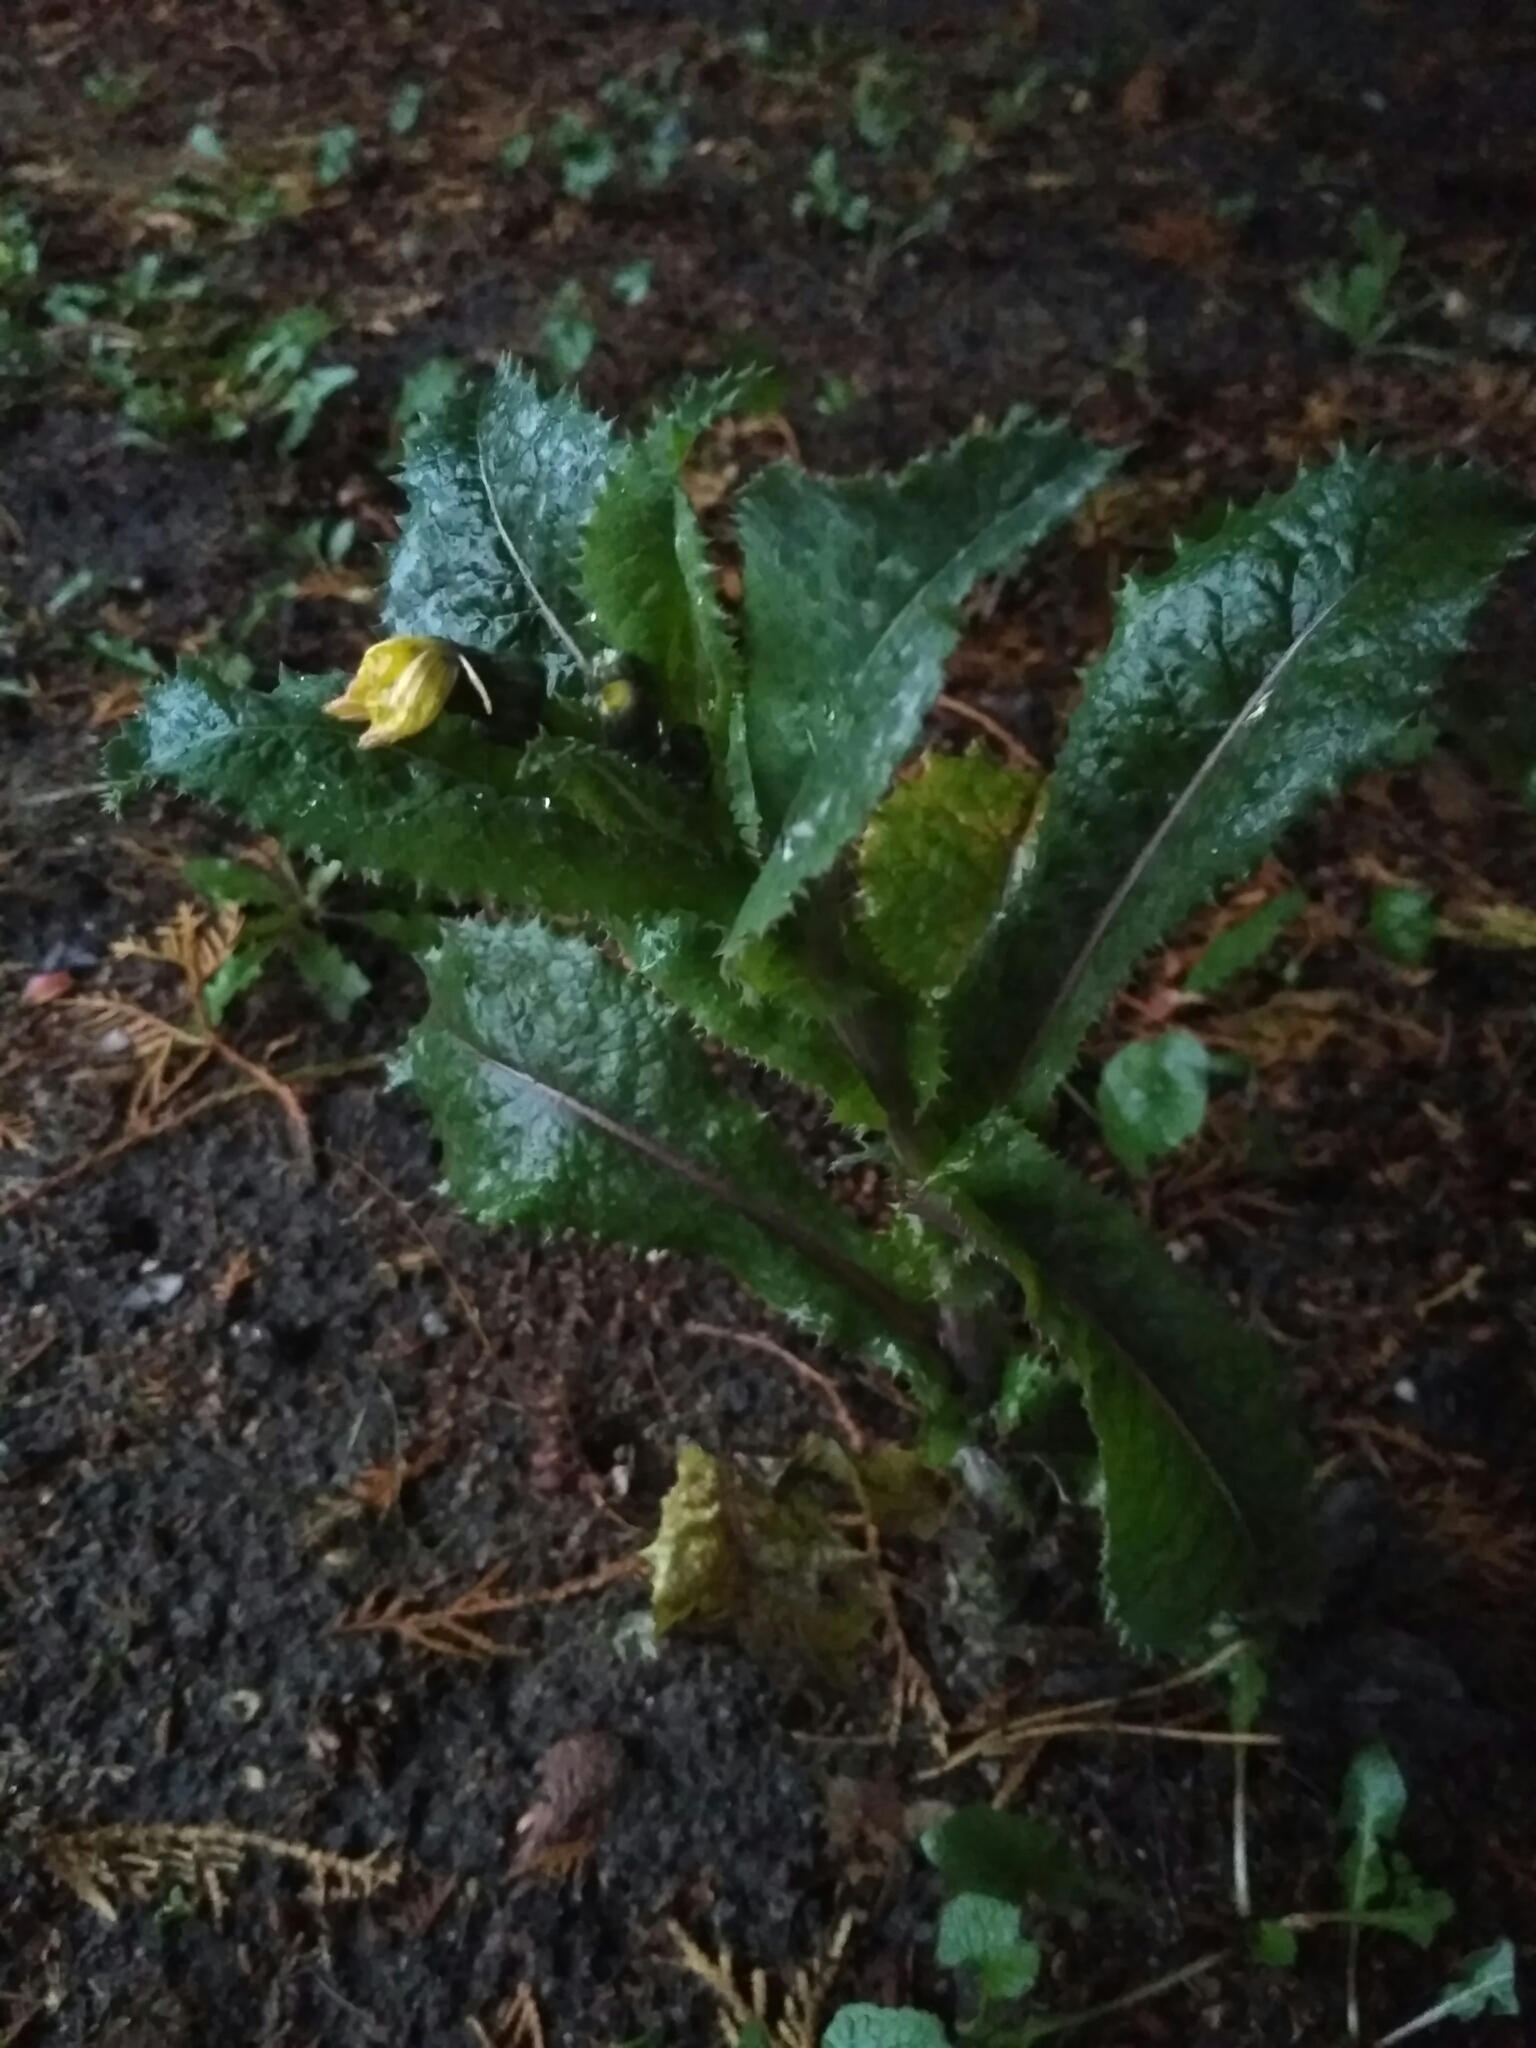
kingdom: Plantae
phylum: Tracheophyta
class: Magnoliopsida
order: Asterales
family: Asteraceae
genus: Sonchus
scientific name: Sonchus asper
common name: Prickly sow-thistle
